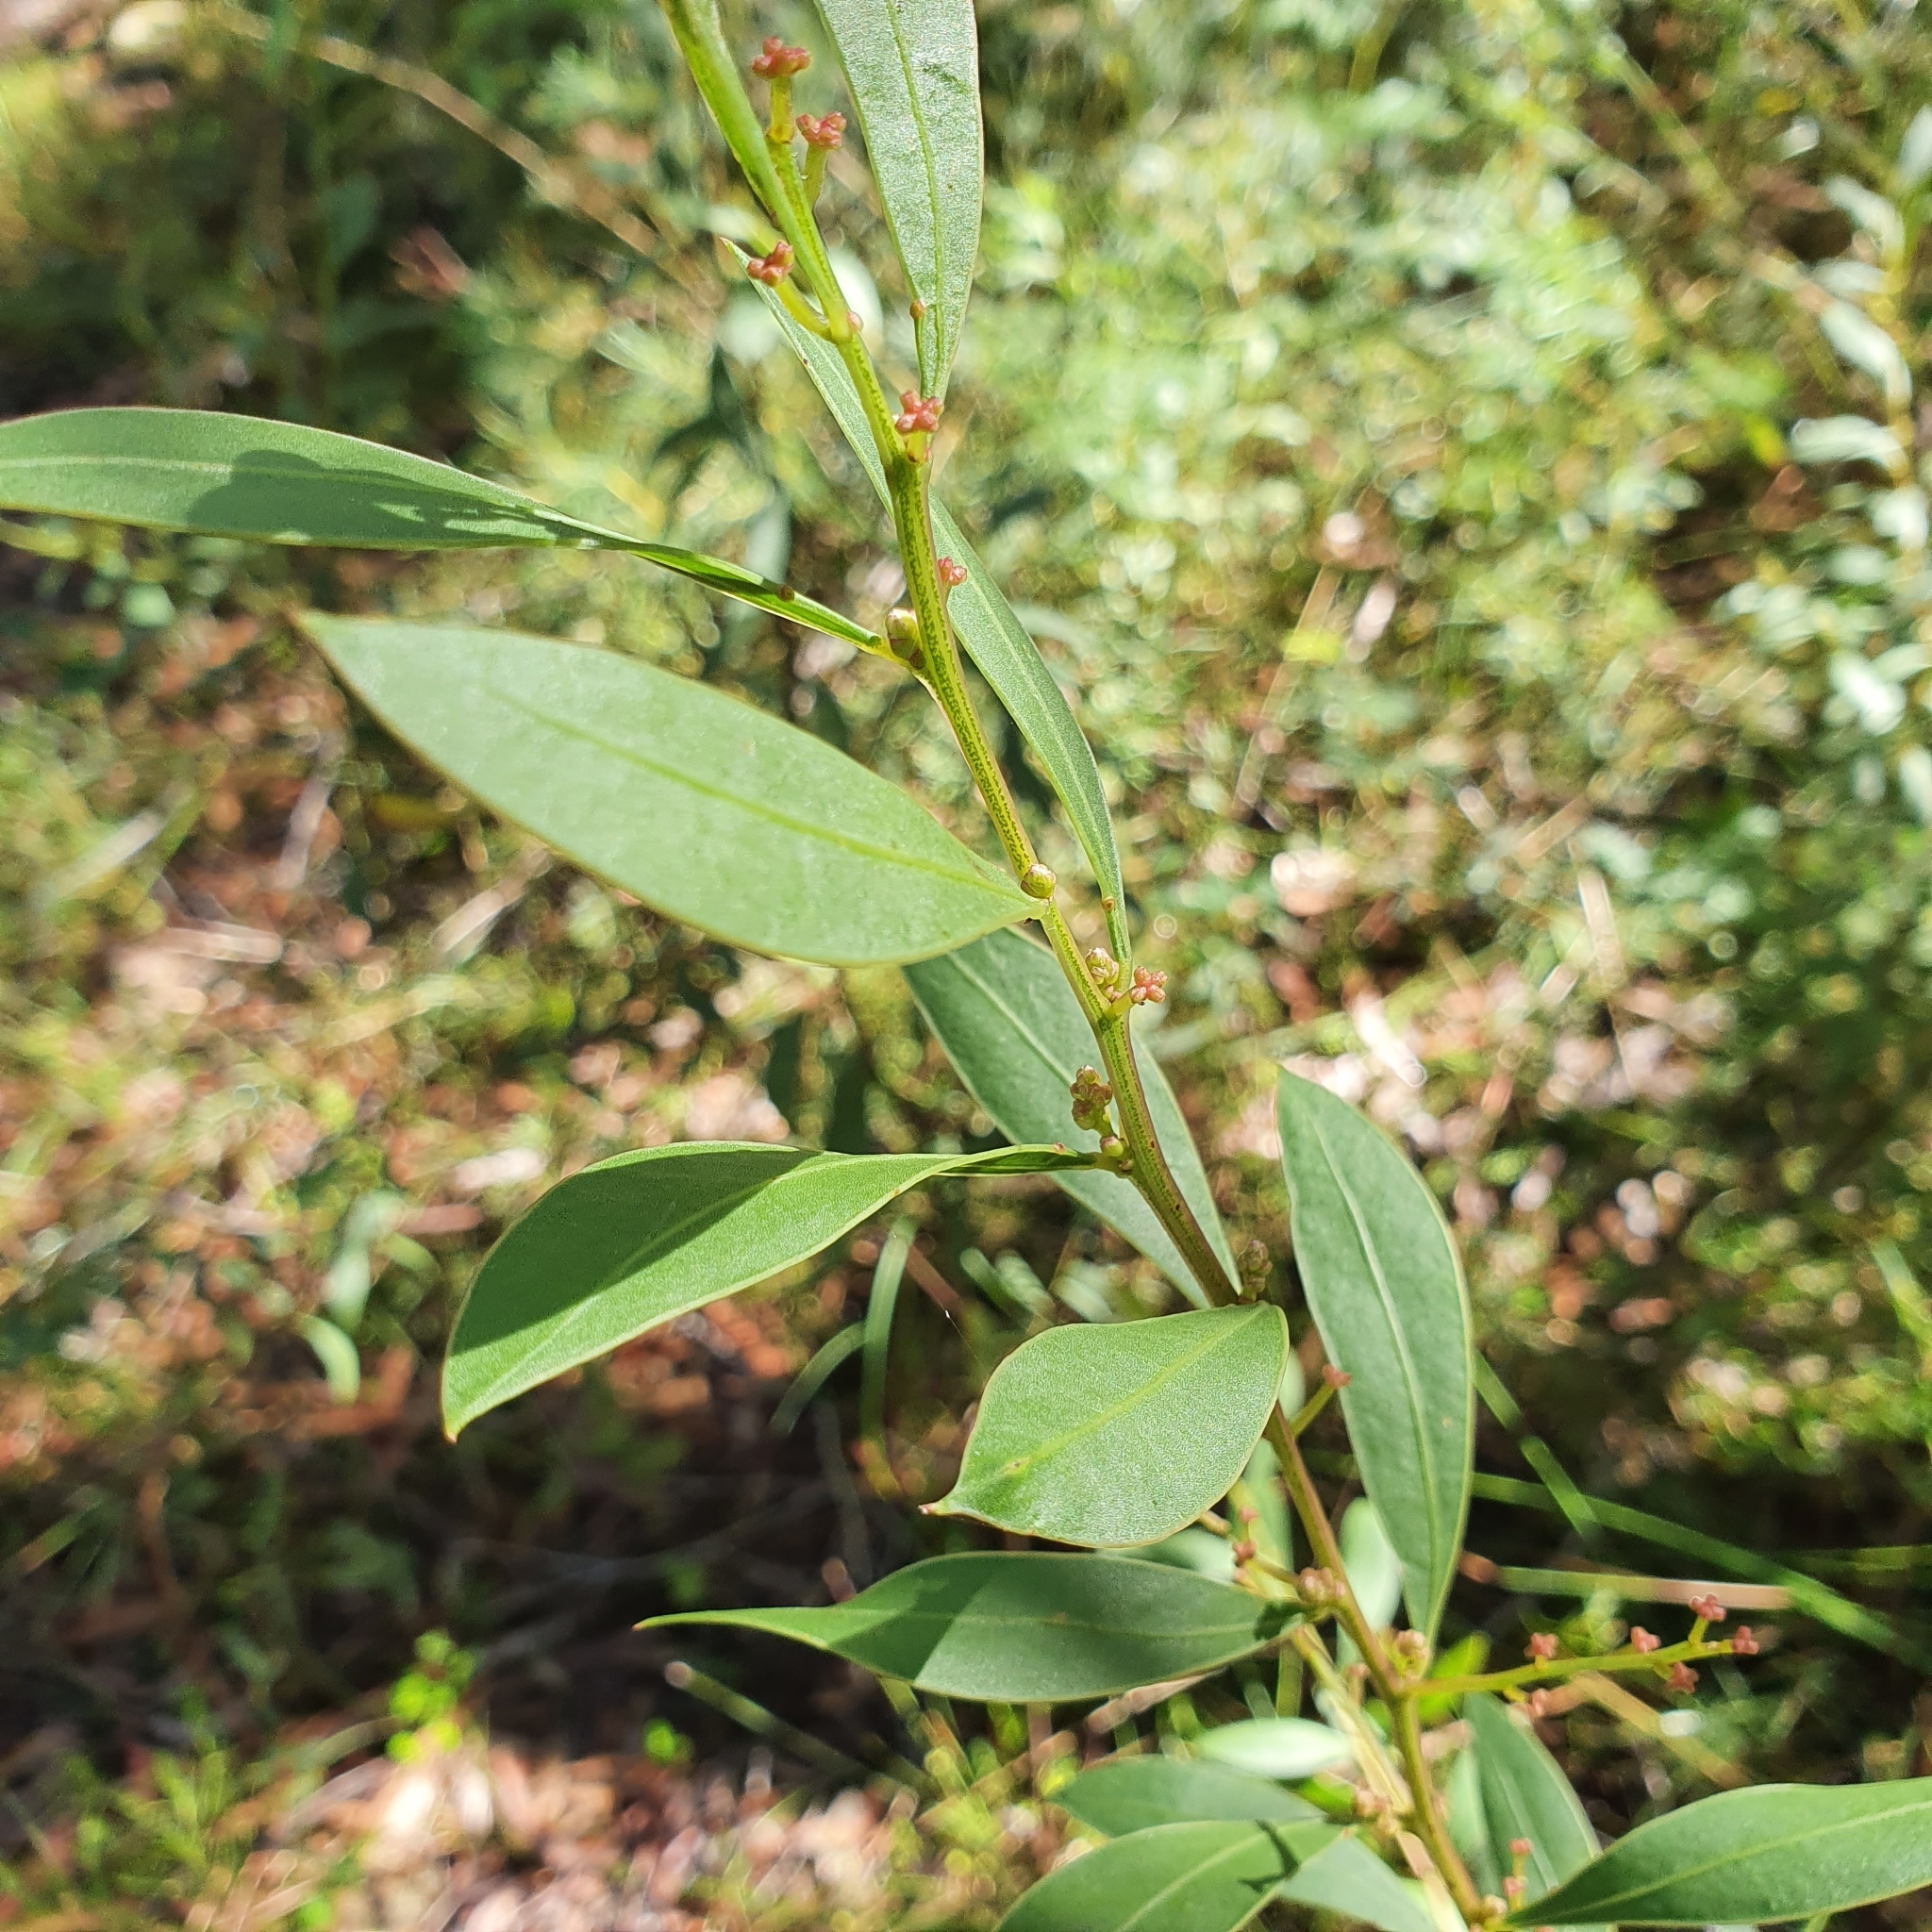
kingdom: Plantae
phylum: Tracheophyta
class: Magnoliopsida
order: Fabales
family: Fabaceae
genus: Acacia
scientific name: Acacia myrtifolia
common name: Myrtle wattle
